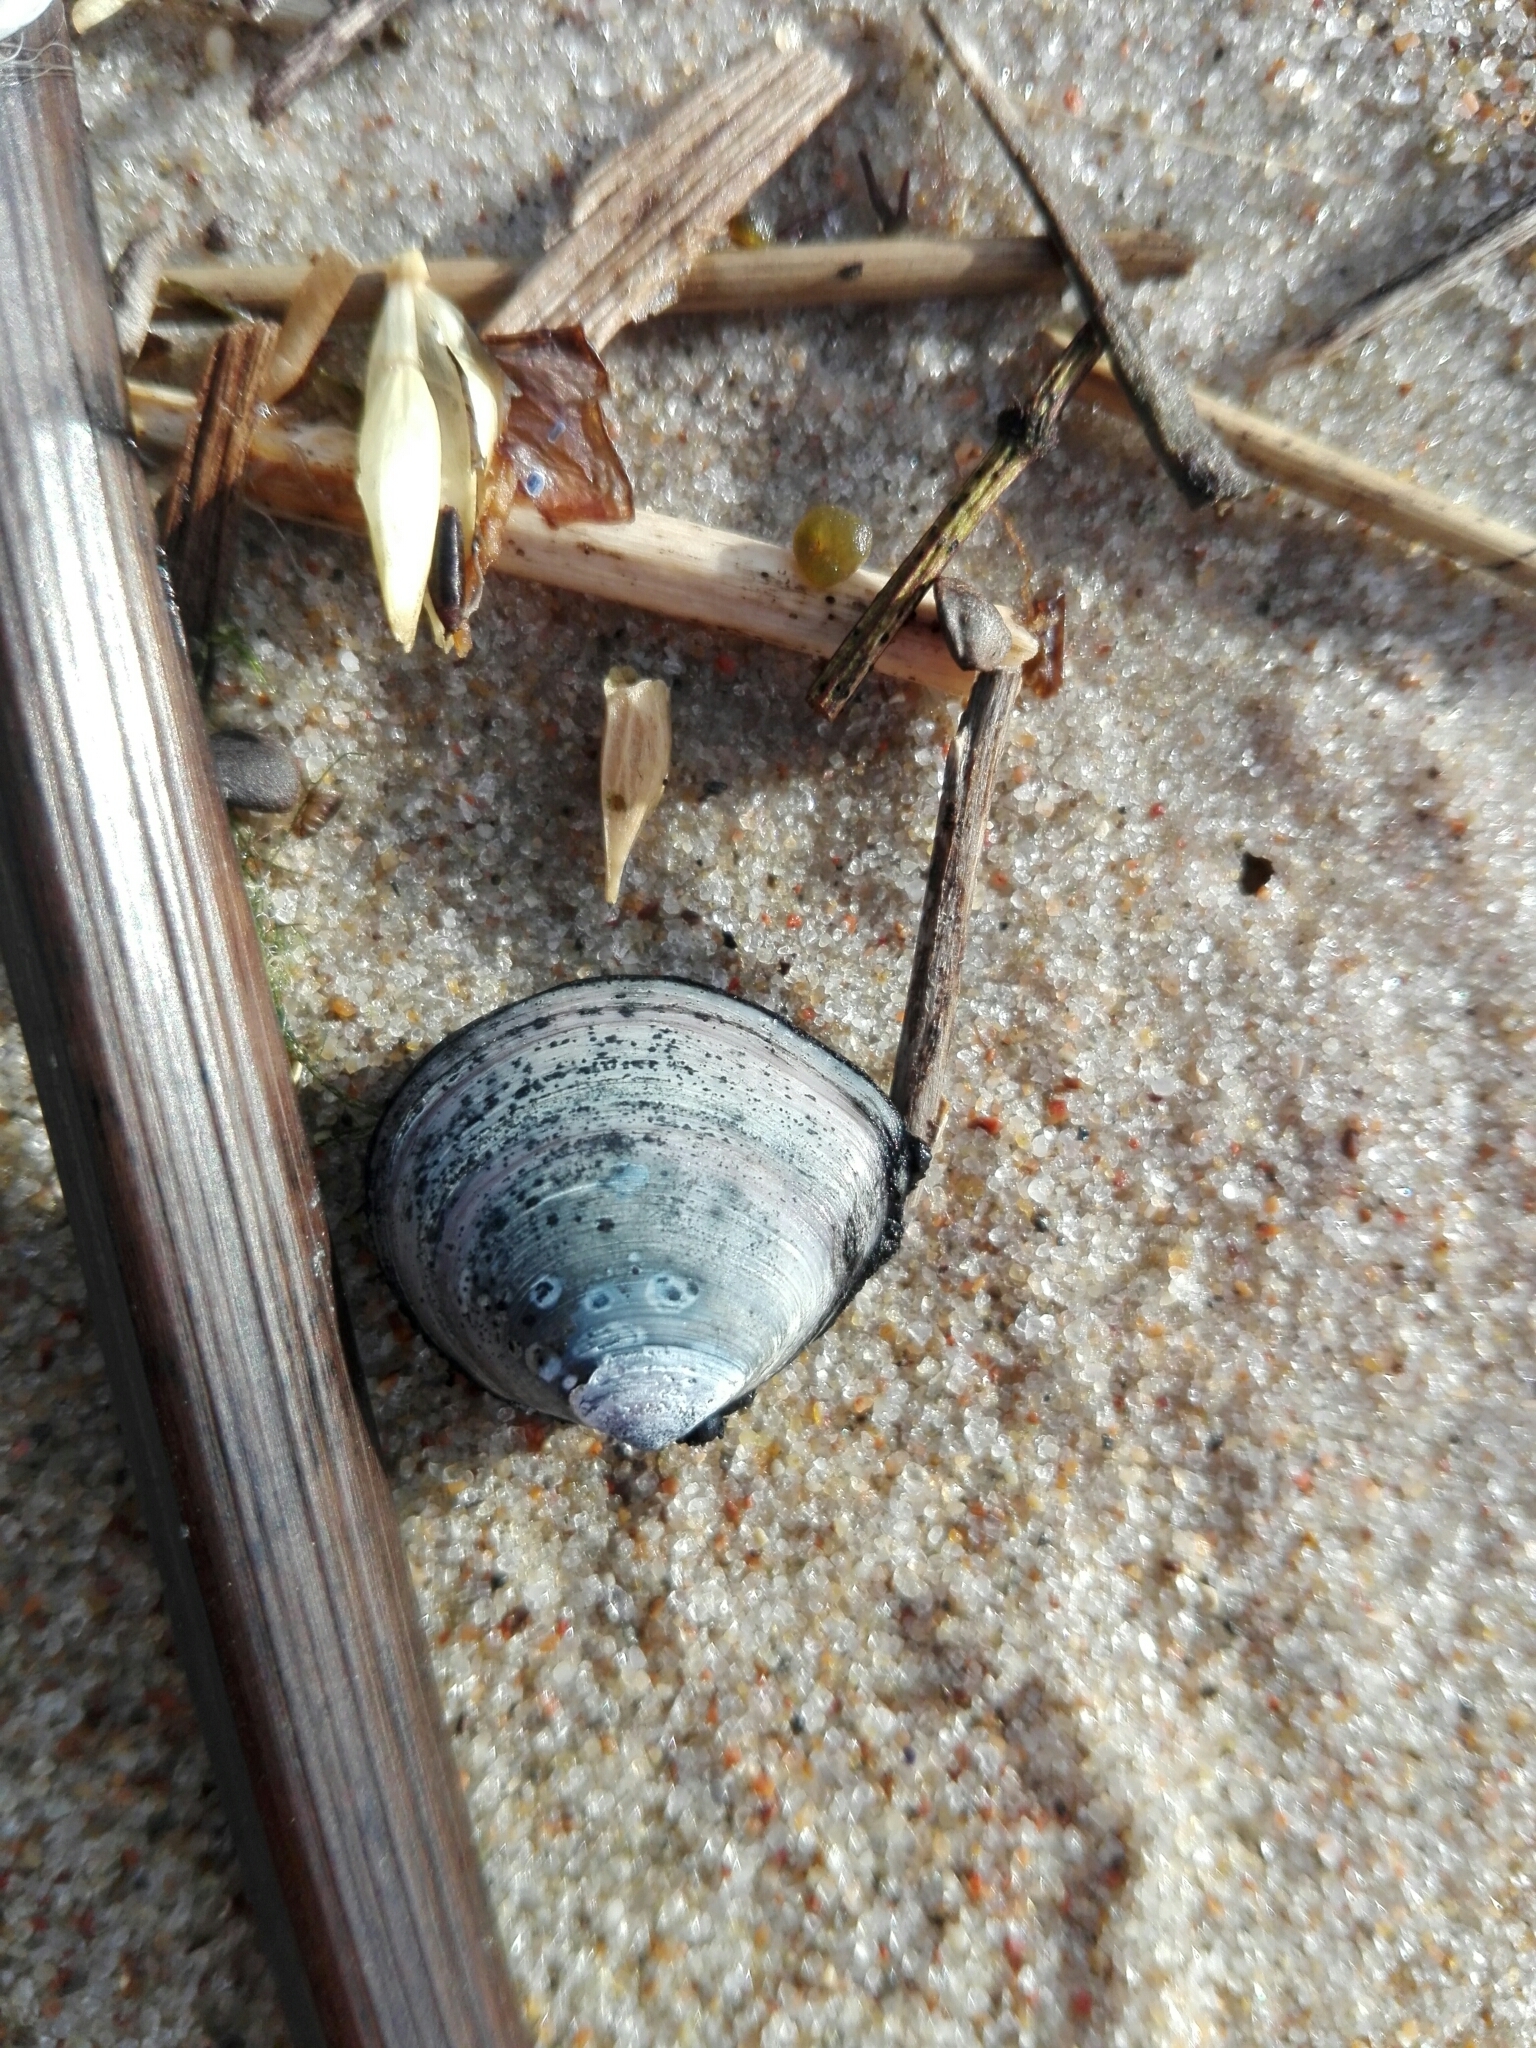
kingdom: Animalia
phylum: Mollusca
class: Bivalvia
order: Cardiida
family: Tellinidae
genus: Macoma
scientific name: Macoma balthica
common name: Baltic tellin
